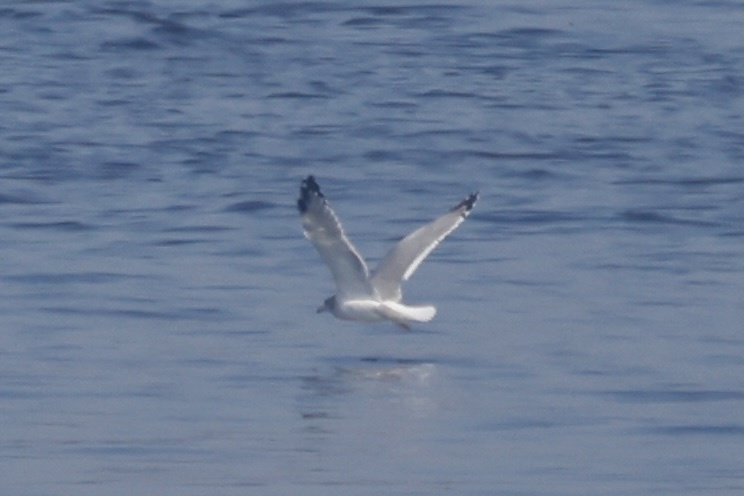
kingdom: Animalia
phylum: Chordata
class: Aves
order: Charadriiformes
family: Laridae
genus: Larus
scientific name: Larus
